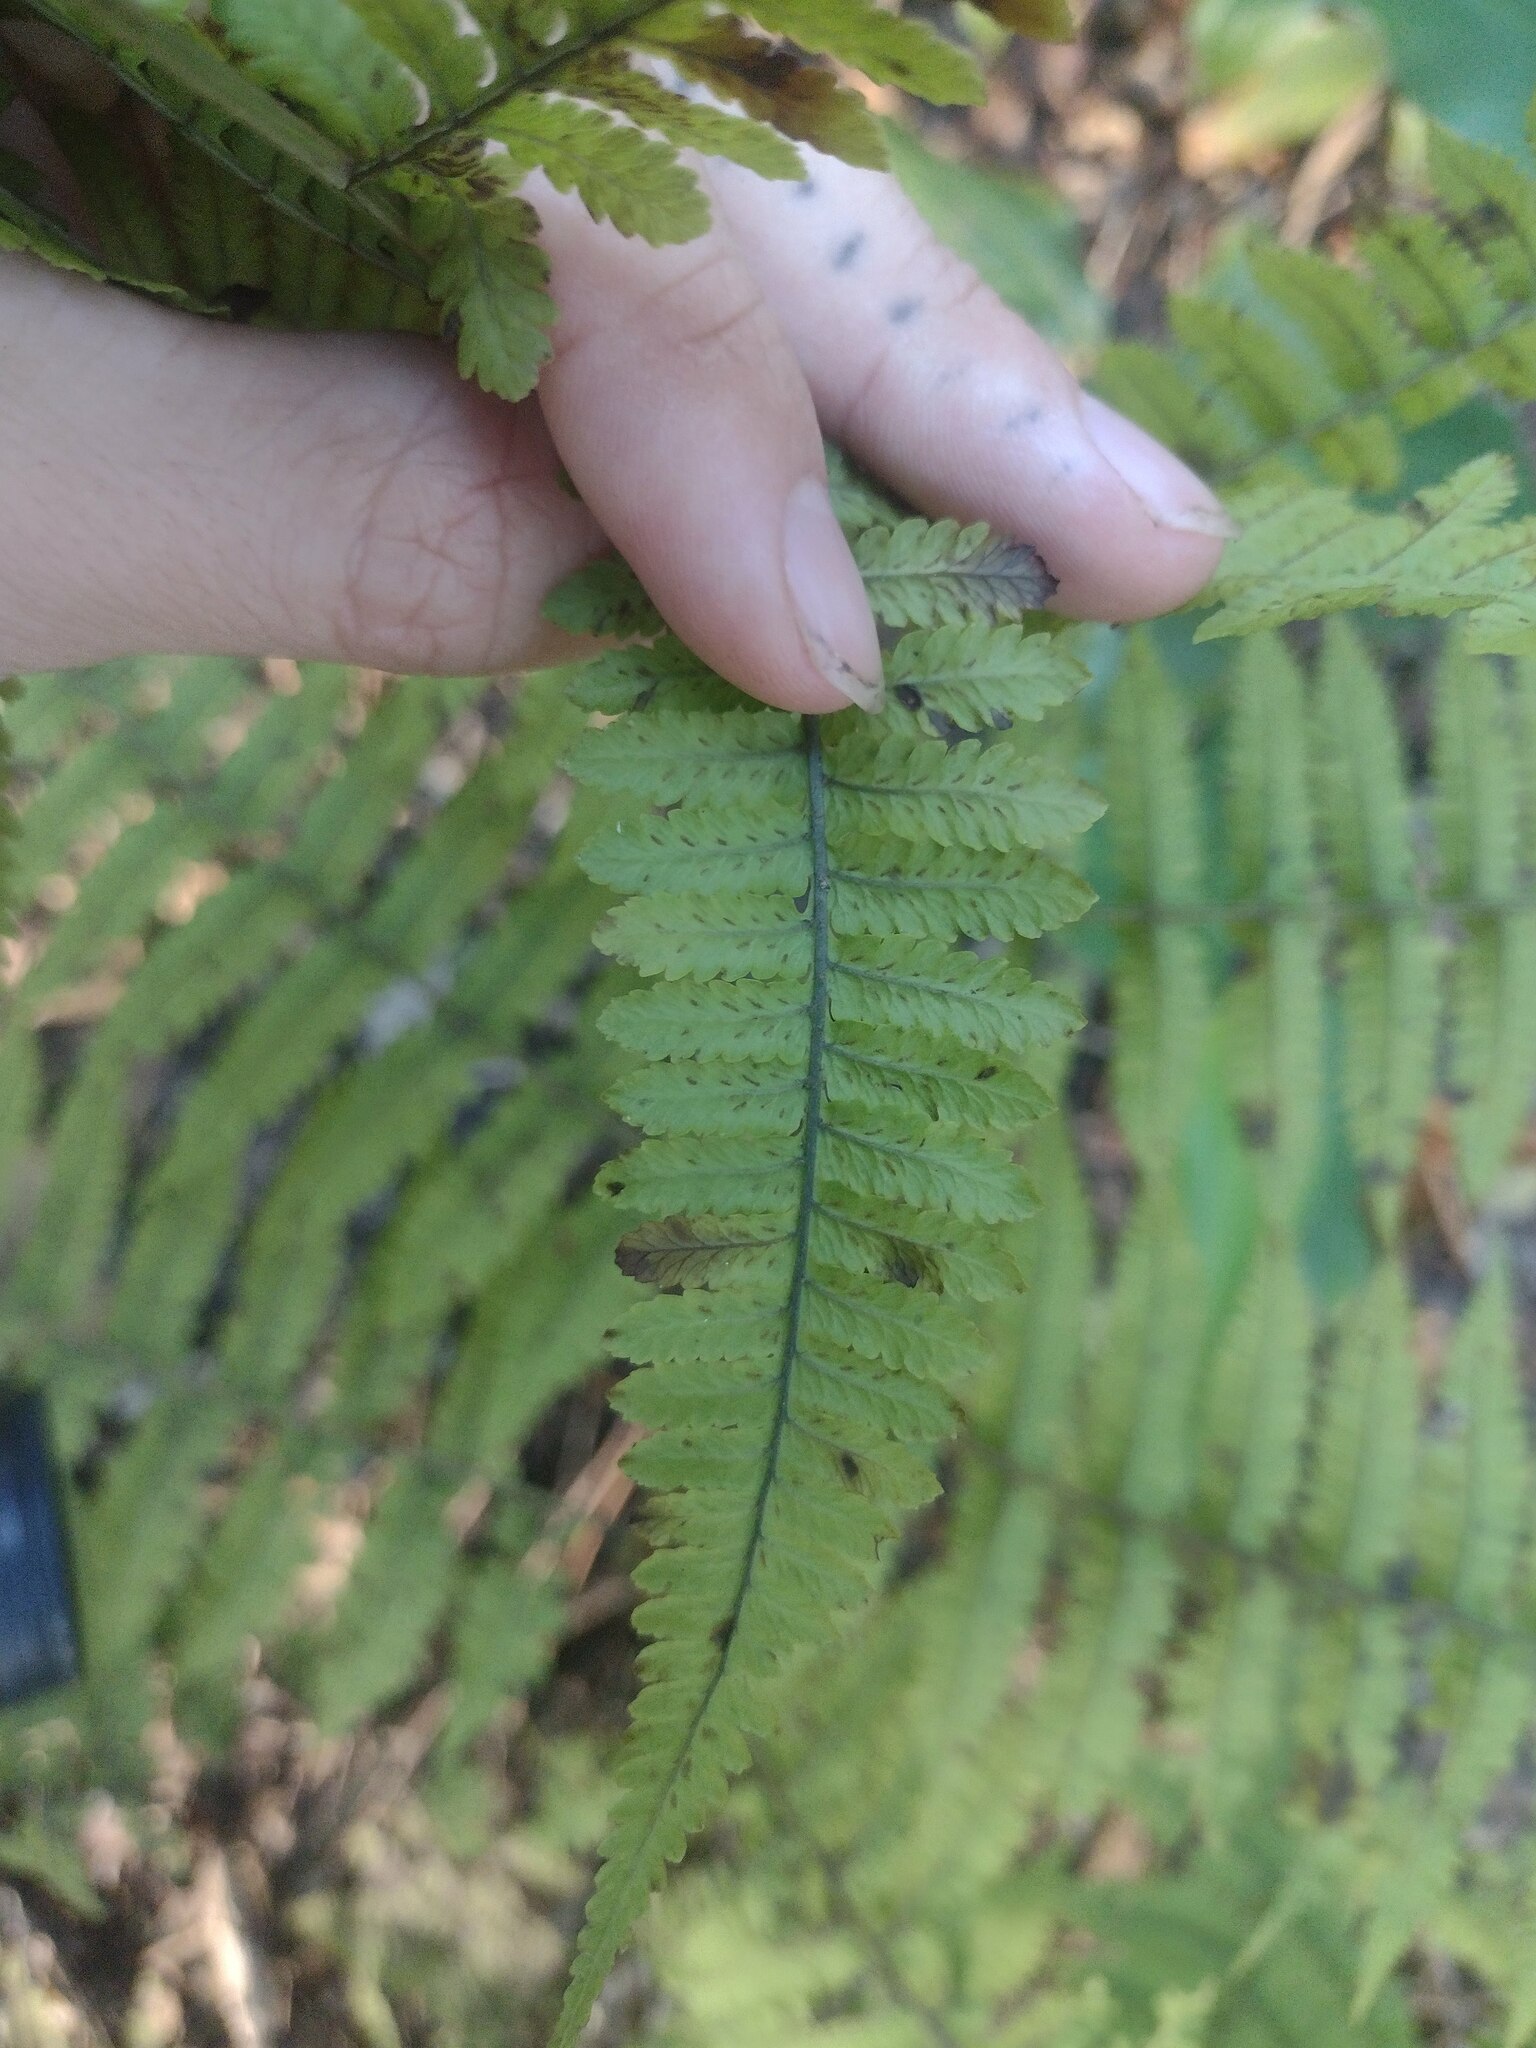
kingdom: Plantae
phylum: Tracheophyta
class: Polypodiopsida
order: Polypodiales
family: Athyriaceae
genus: Diplazium
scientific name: Diplazium sandwichianum
